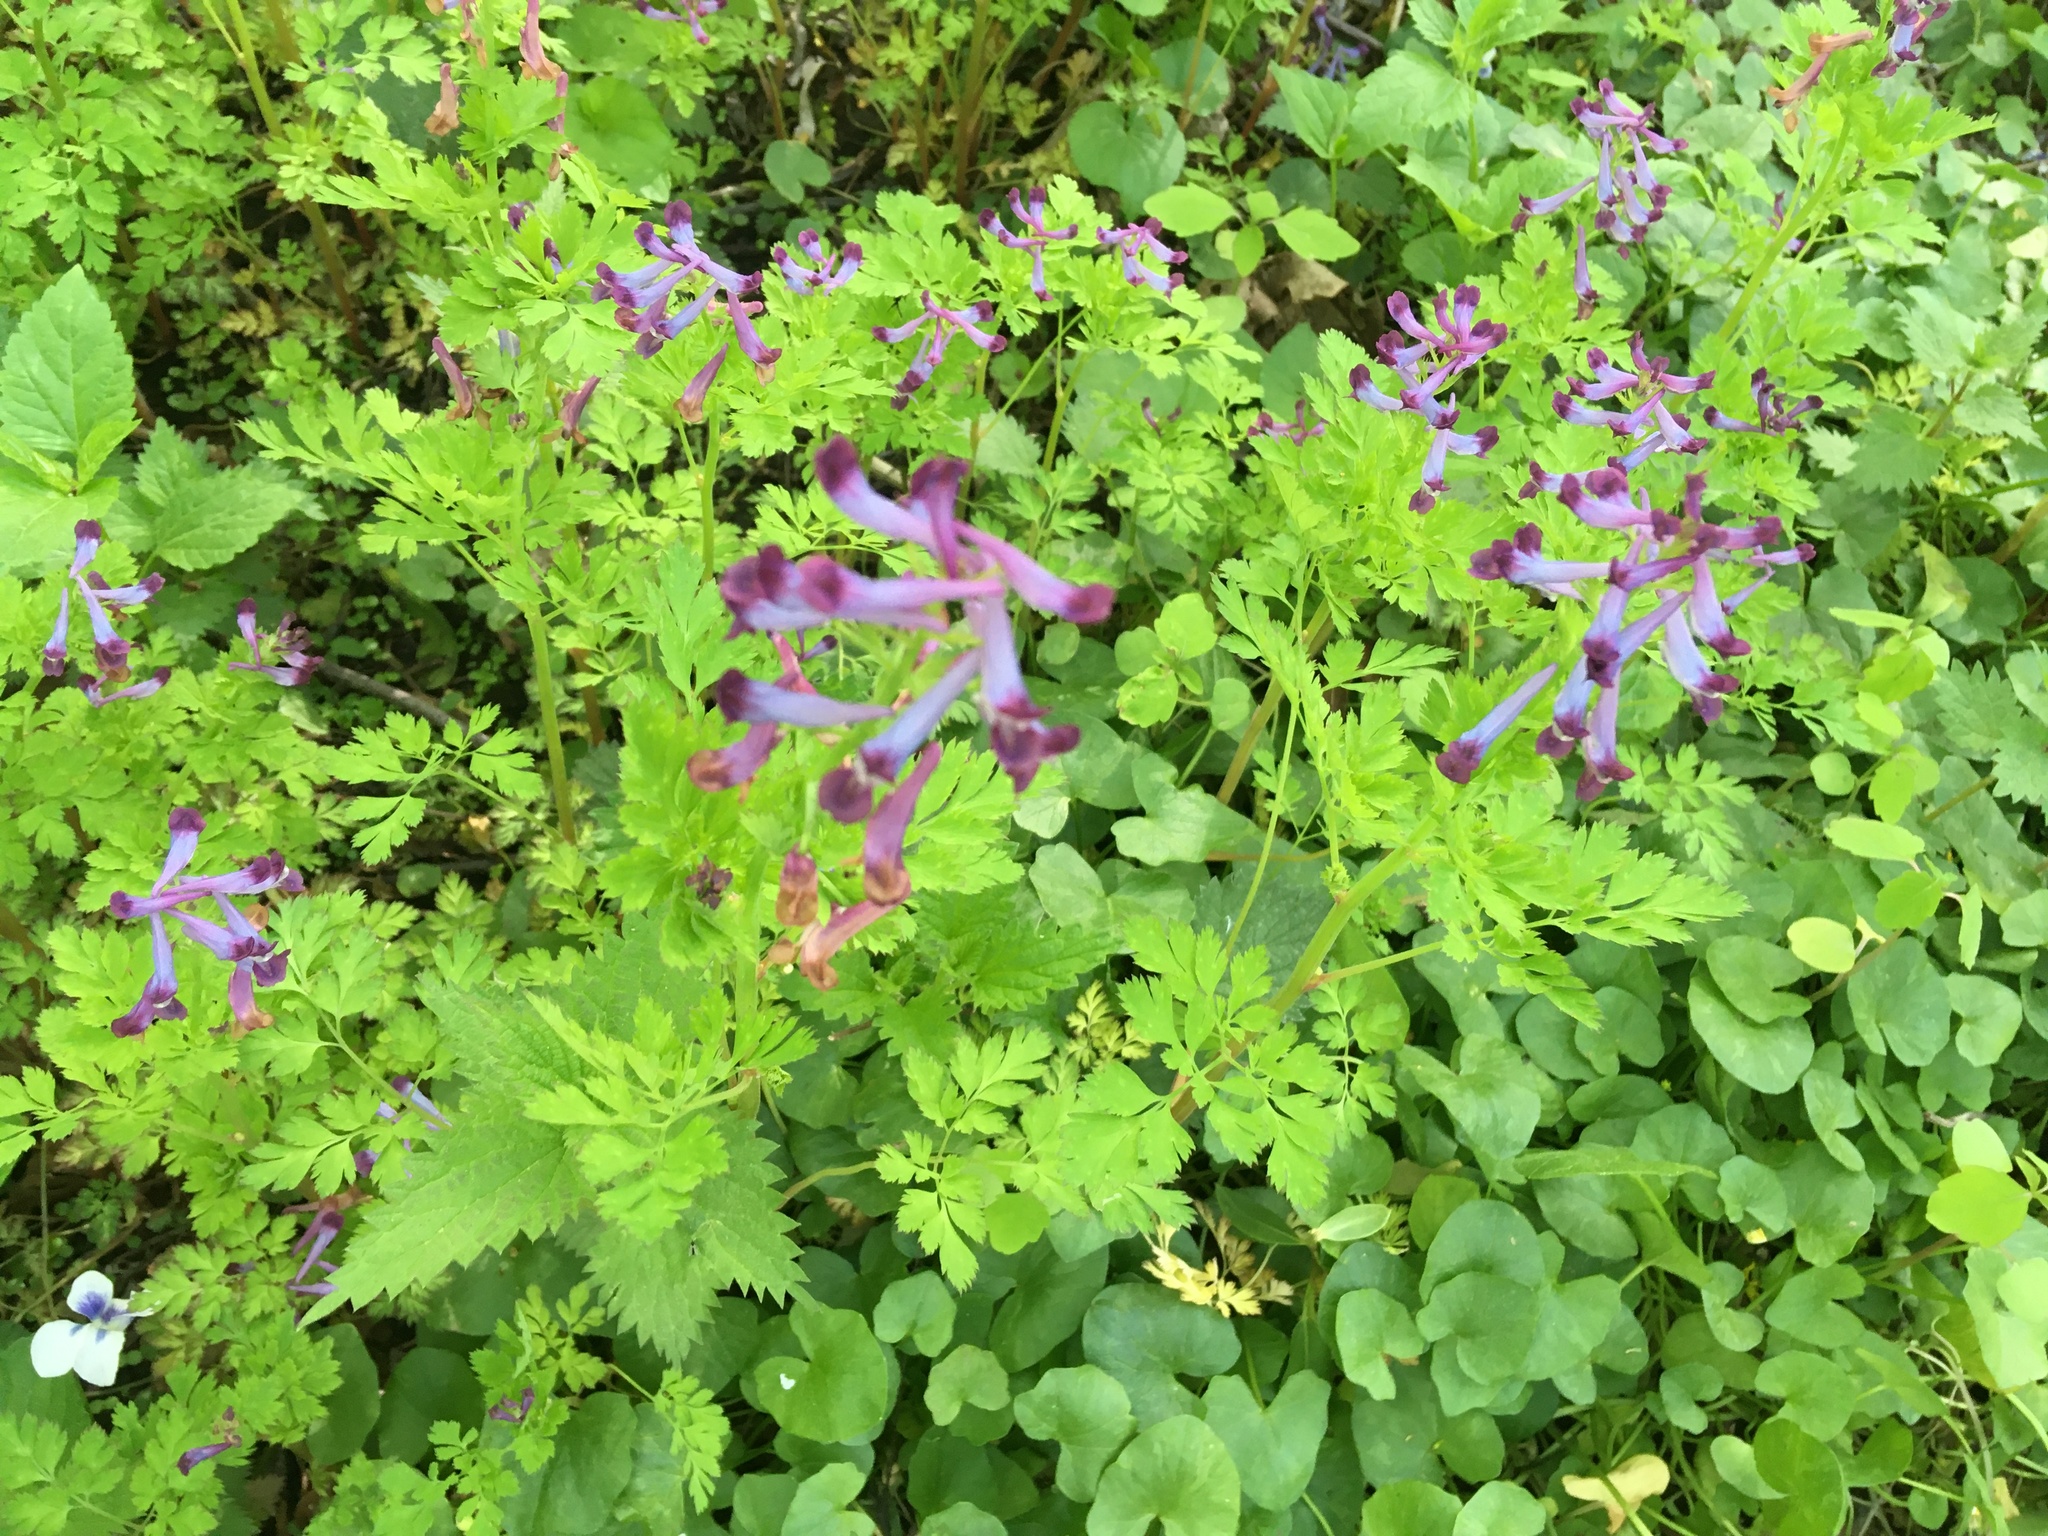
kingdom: Plantae
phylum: Tracheophyta
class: Magnoliopsida
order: Ranunculales
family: Papaveraceae
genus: Corydalis
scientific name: Corydalis incisa
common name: Incised fumewort
